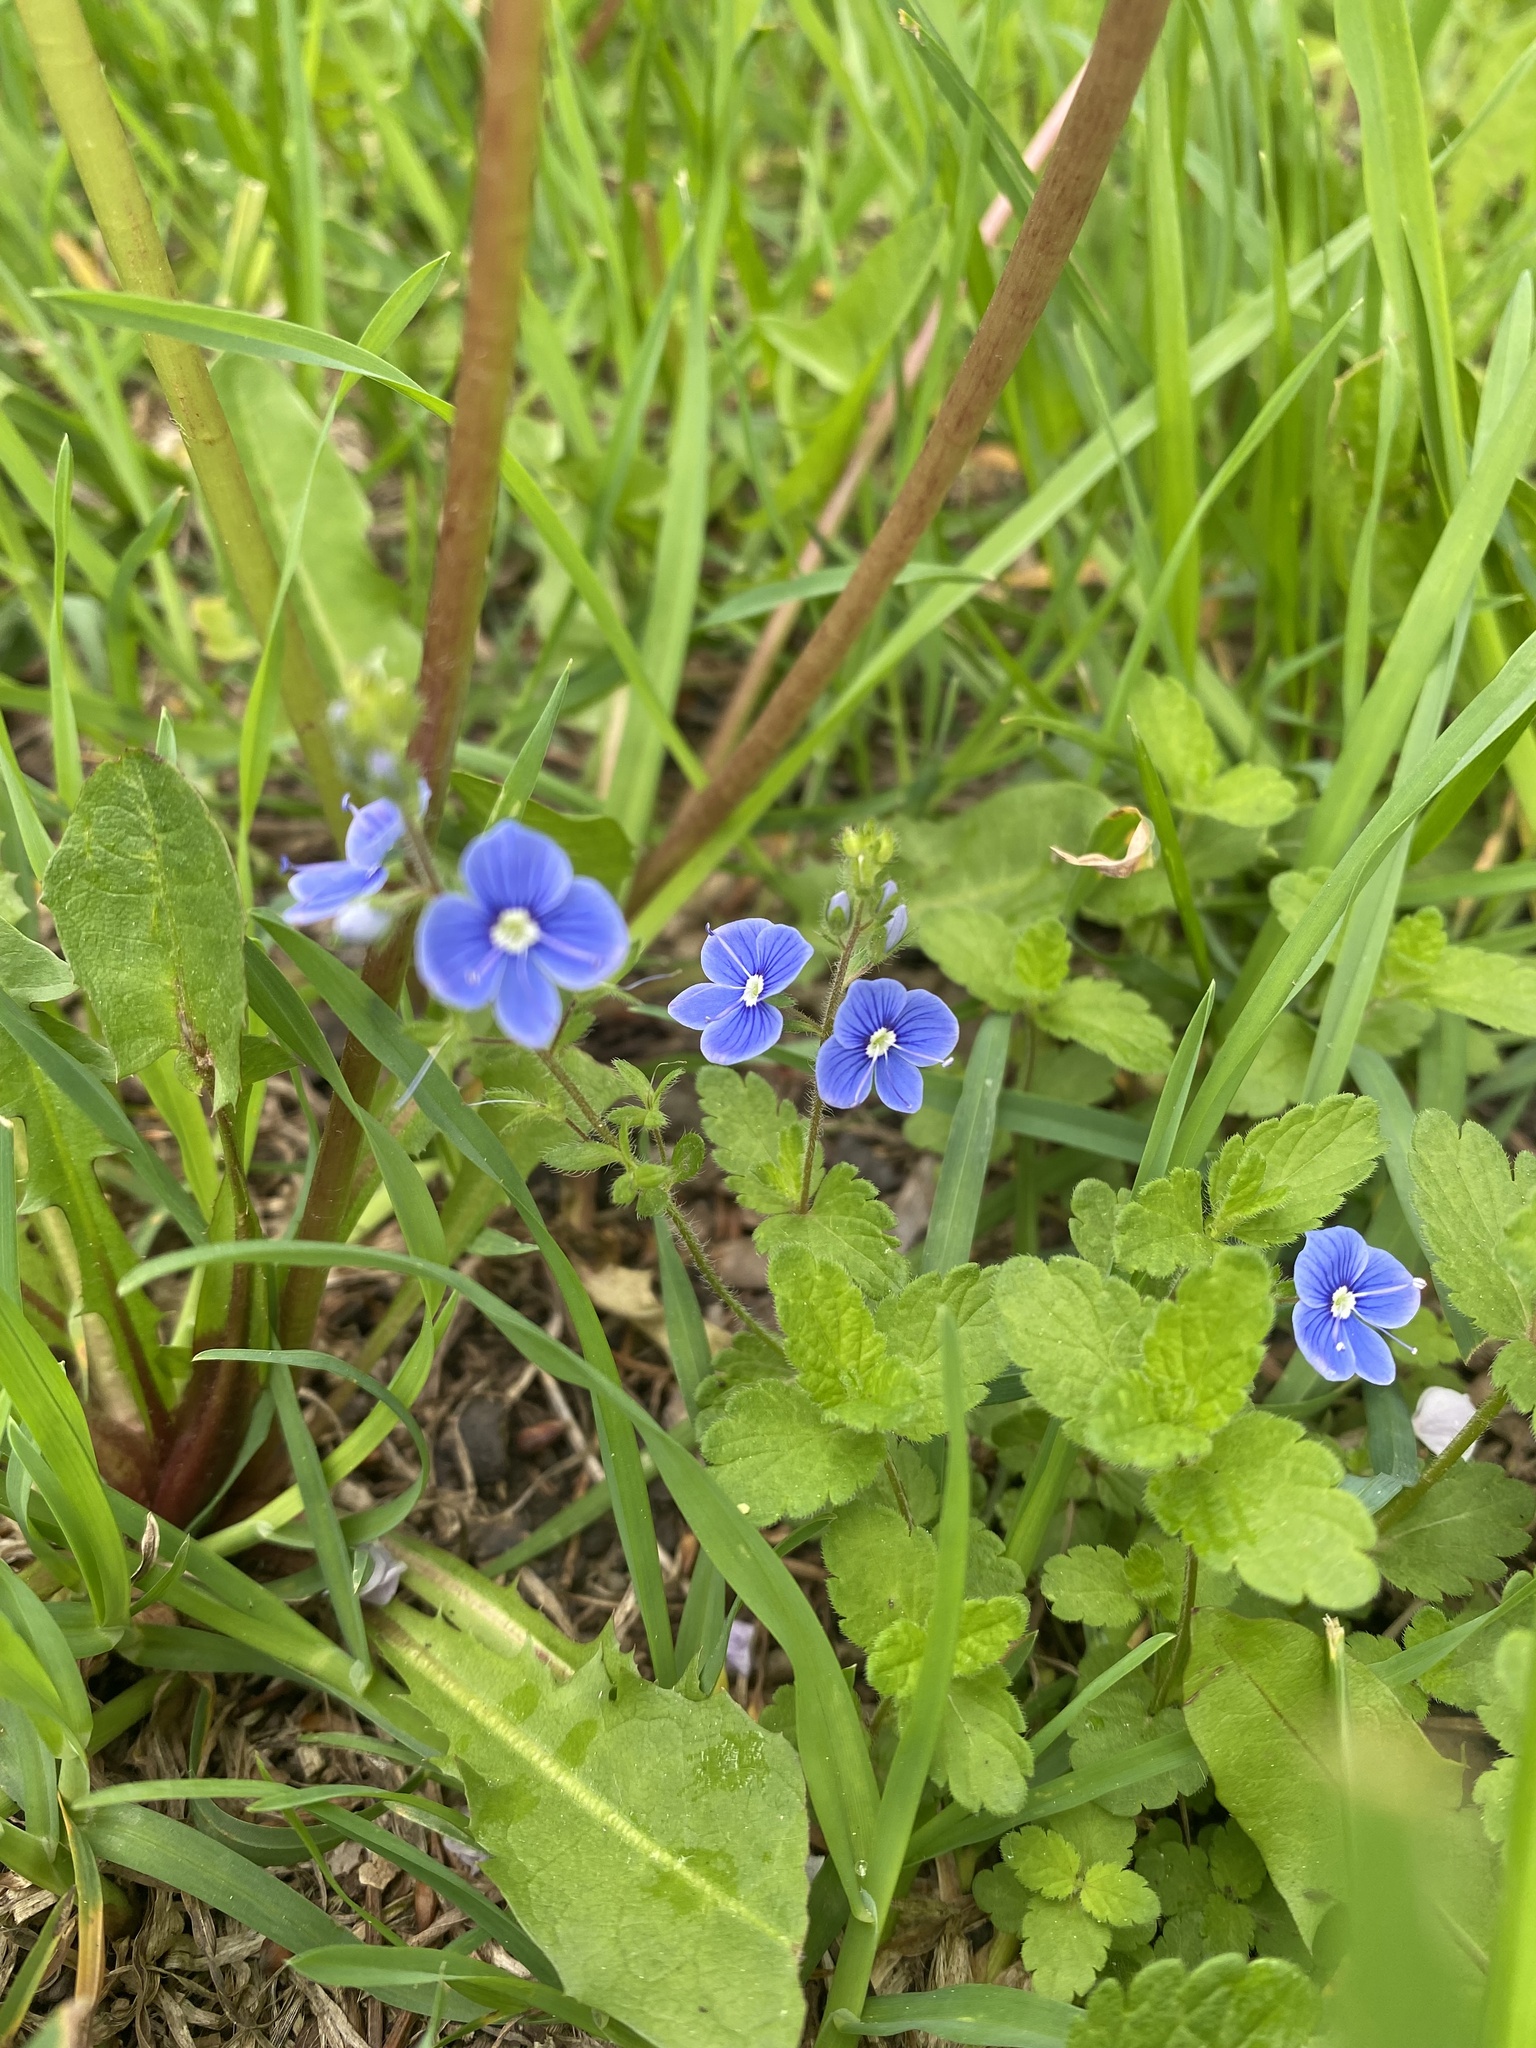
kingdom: Plantae
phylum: Tracheophyta
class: Magnoliopsida
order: Lamiales
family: Plantaginaceae
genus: Veronica
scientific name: Veronica chamaedrys
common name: Germander speedwell
